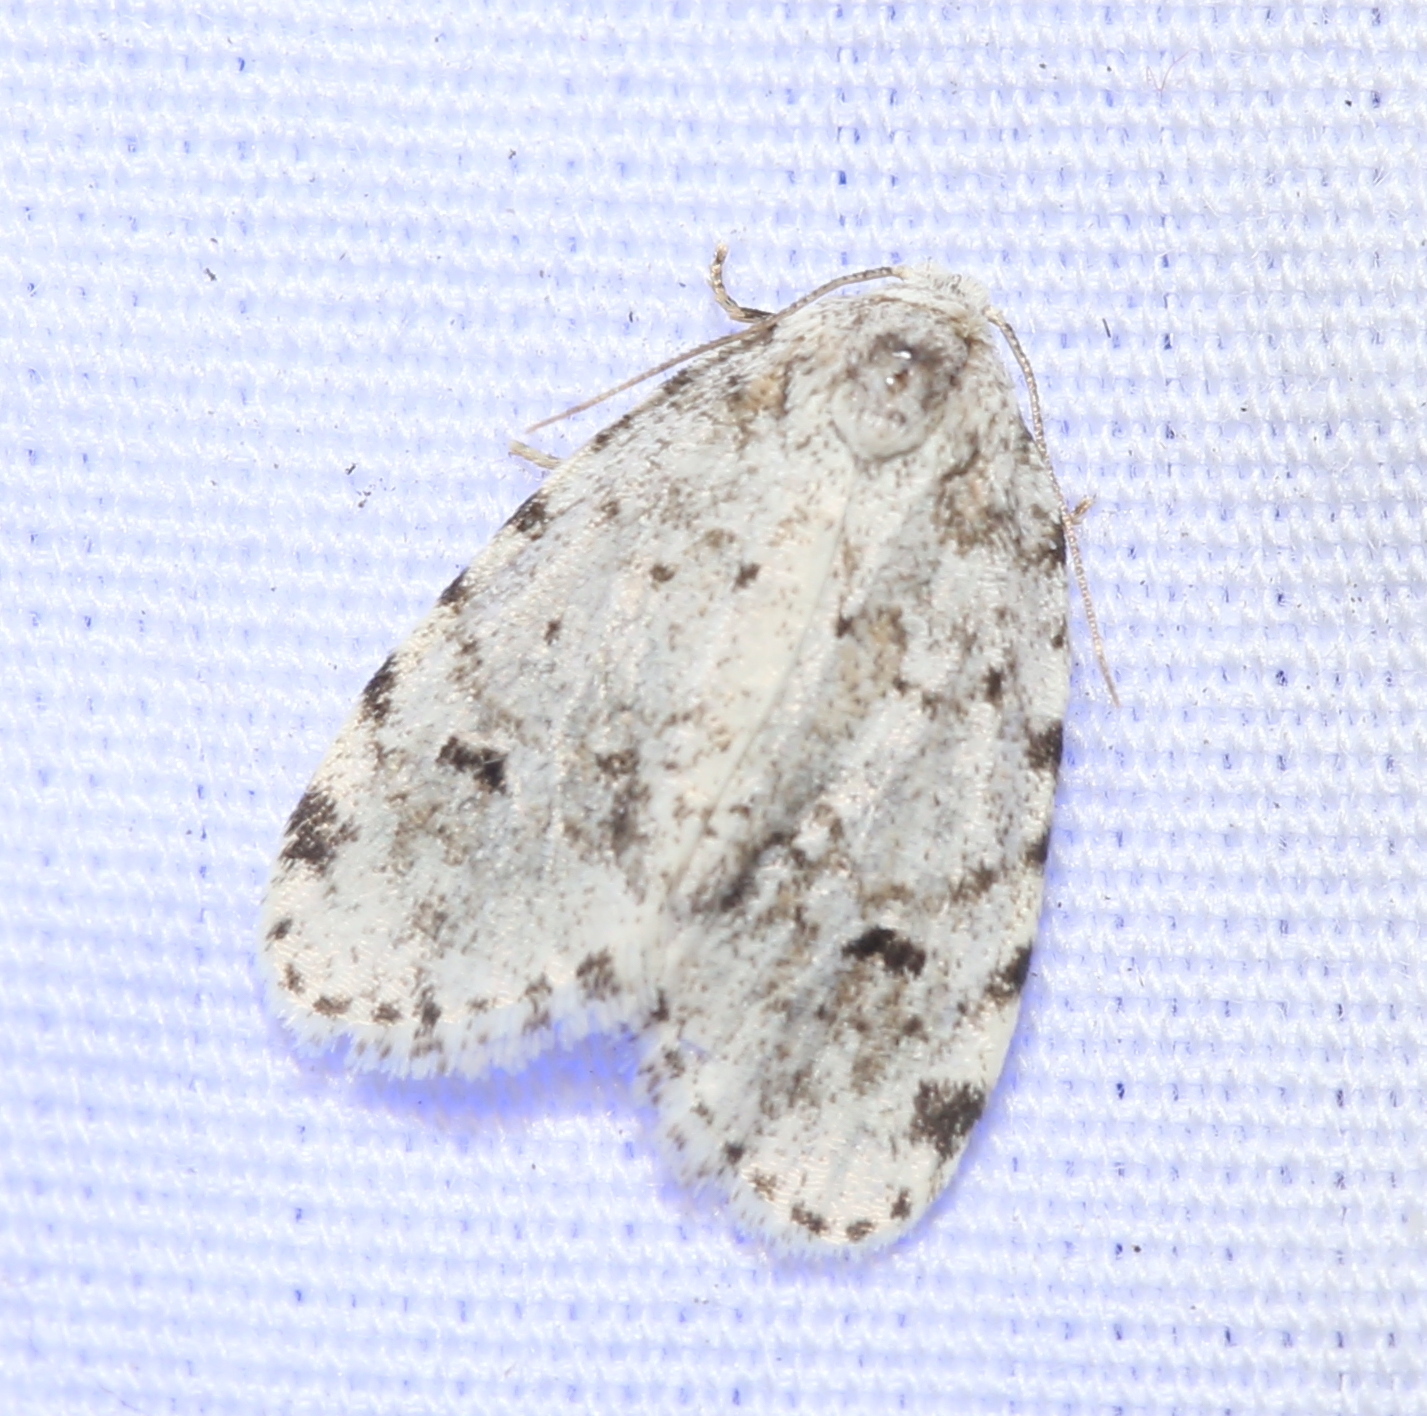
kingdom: Animalia
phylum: Arthropoda
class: Insecta
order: Lepidoptera
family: Erebidae
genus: Clemensia
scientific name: Clemensia albata
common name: Little white lichen moth
